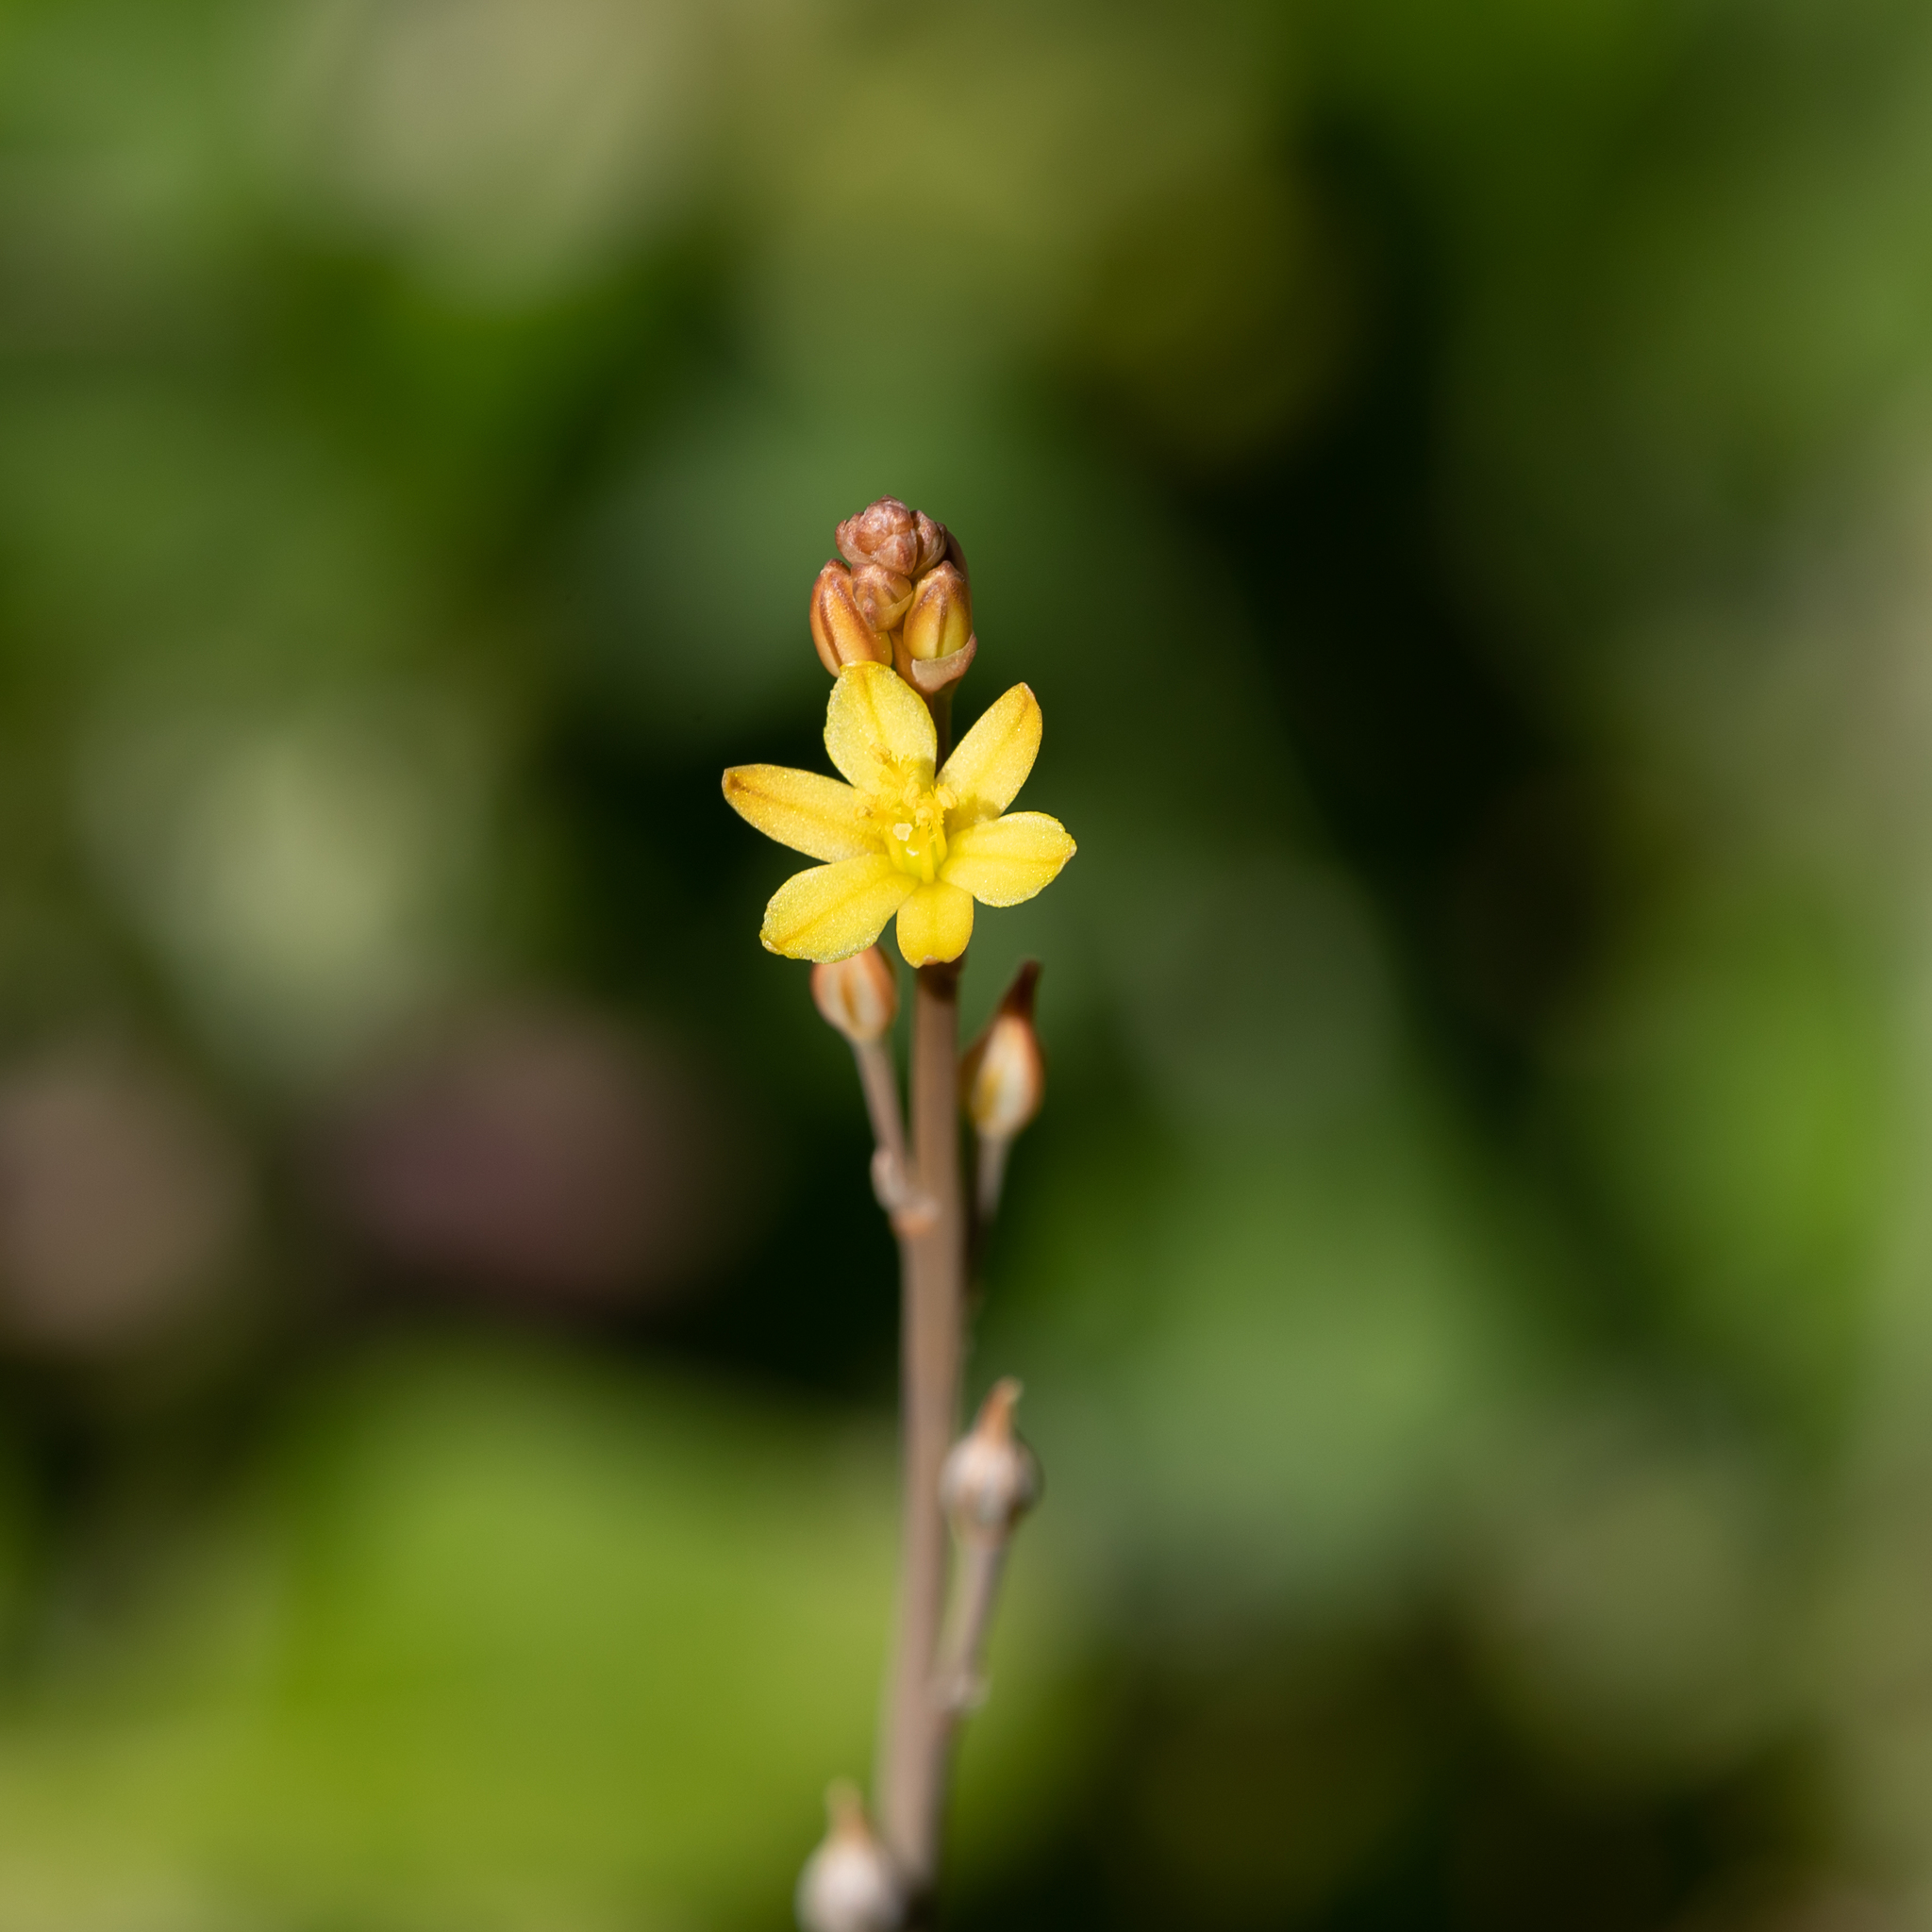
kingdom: Plantae
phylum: Tracheophyta
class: Liliopsida
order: Asparagales
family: Asphodelaceae
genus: Bulbine
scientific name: Bulbine semibarbata
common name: Leek lily
